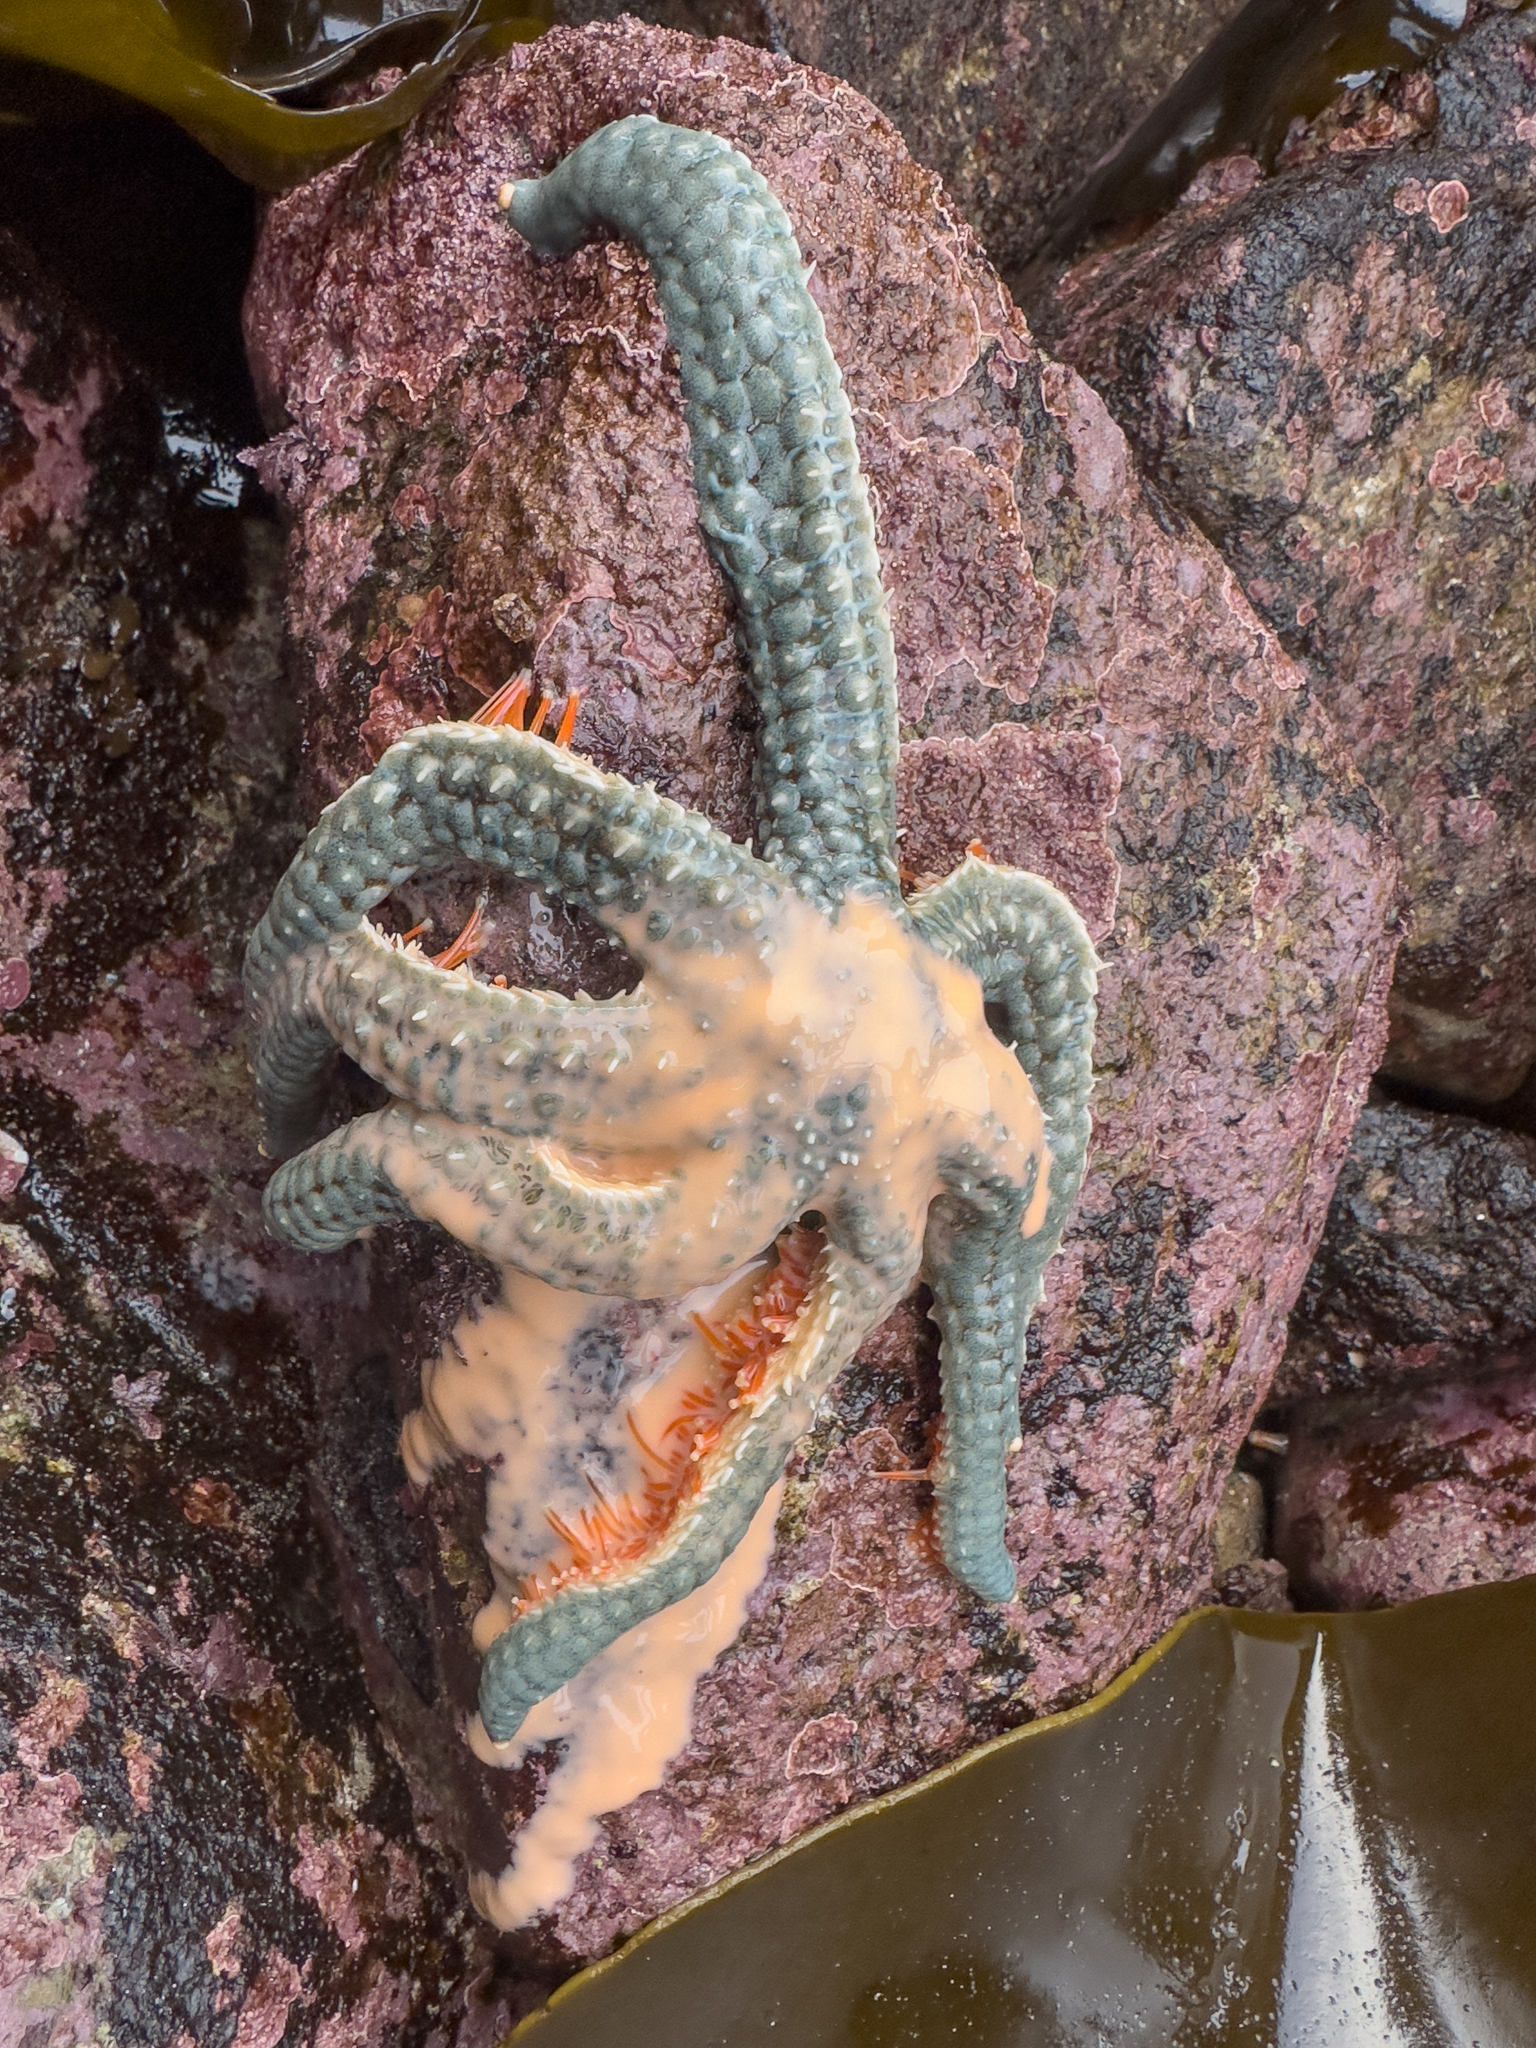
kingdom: Animalia
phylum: Echinodermata
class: Asteroidea
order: Forcipulatida
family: Asteriidae
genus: Astrostole
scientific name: Astrostole scabra
